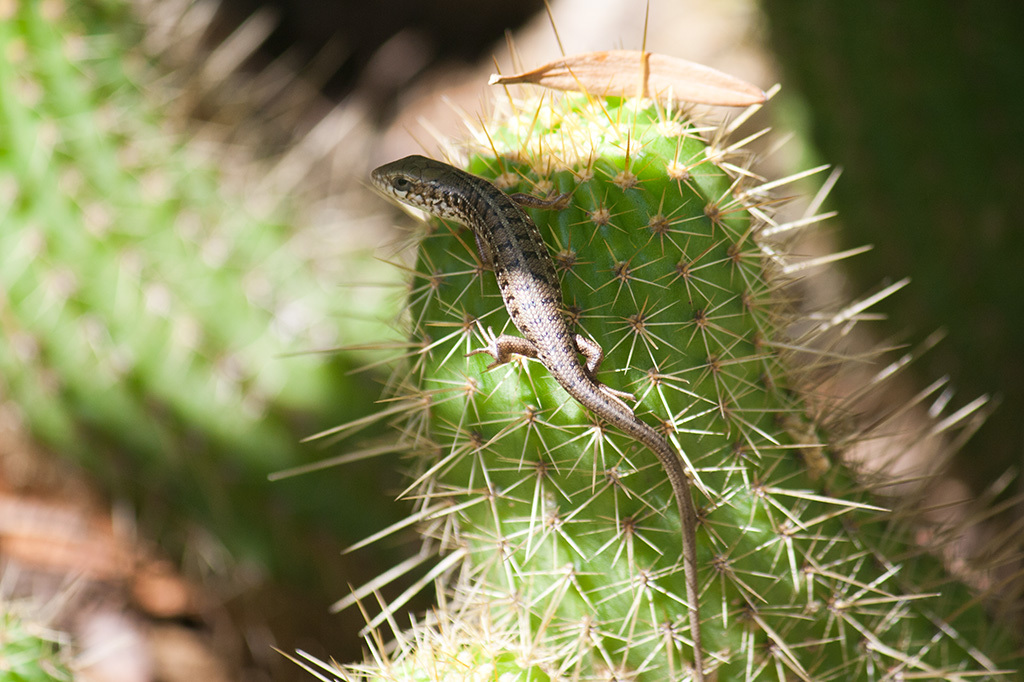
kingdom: Animalia
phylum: Chordata
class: Squamata
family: Scincidae
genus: Trachylepis
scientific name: Trachylepis capensis
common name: Cape skink
